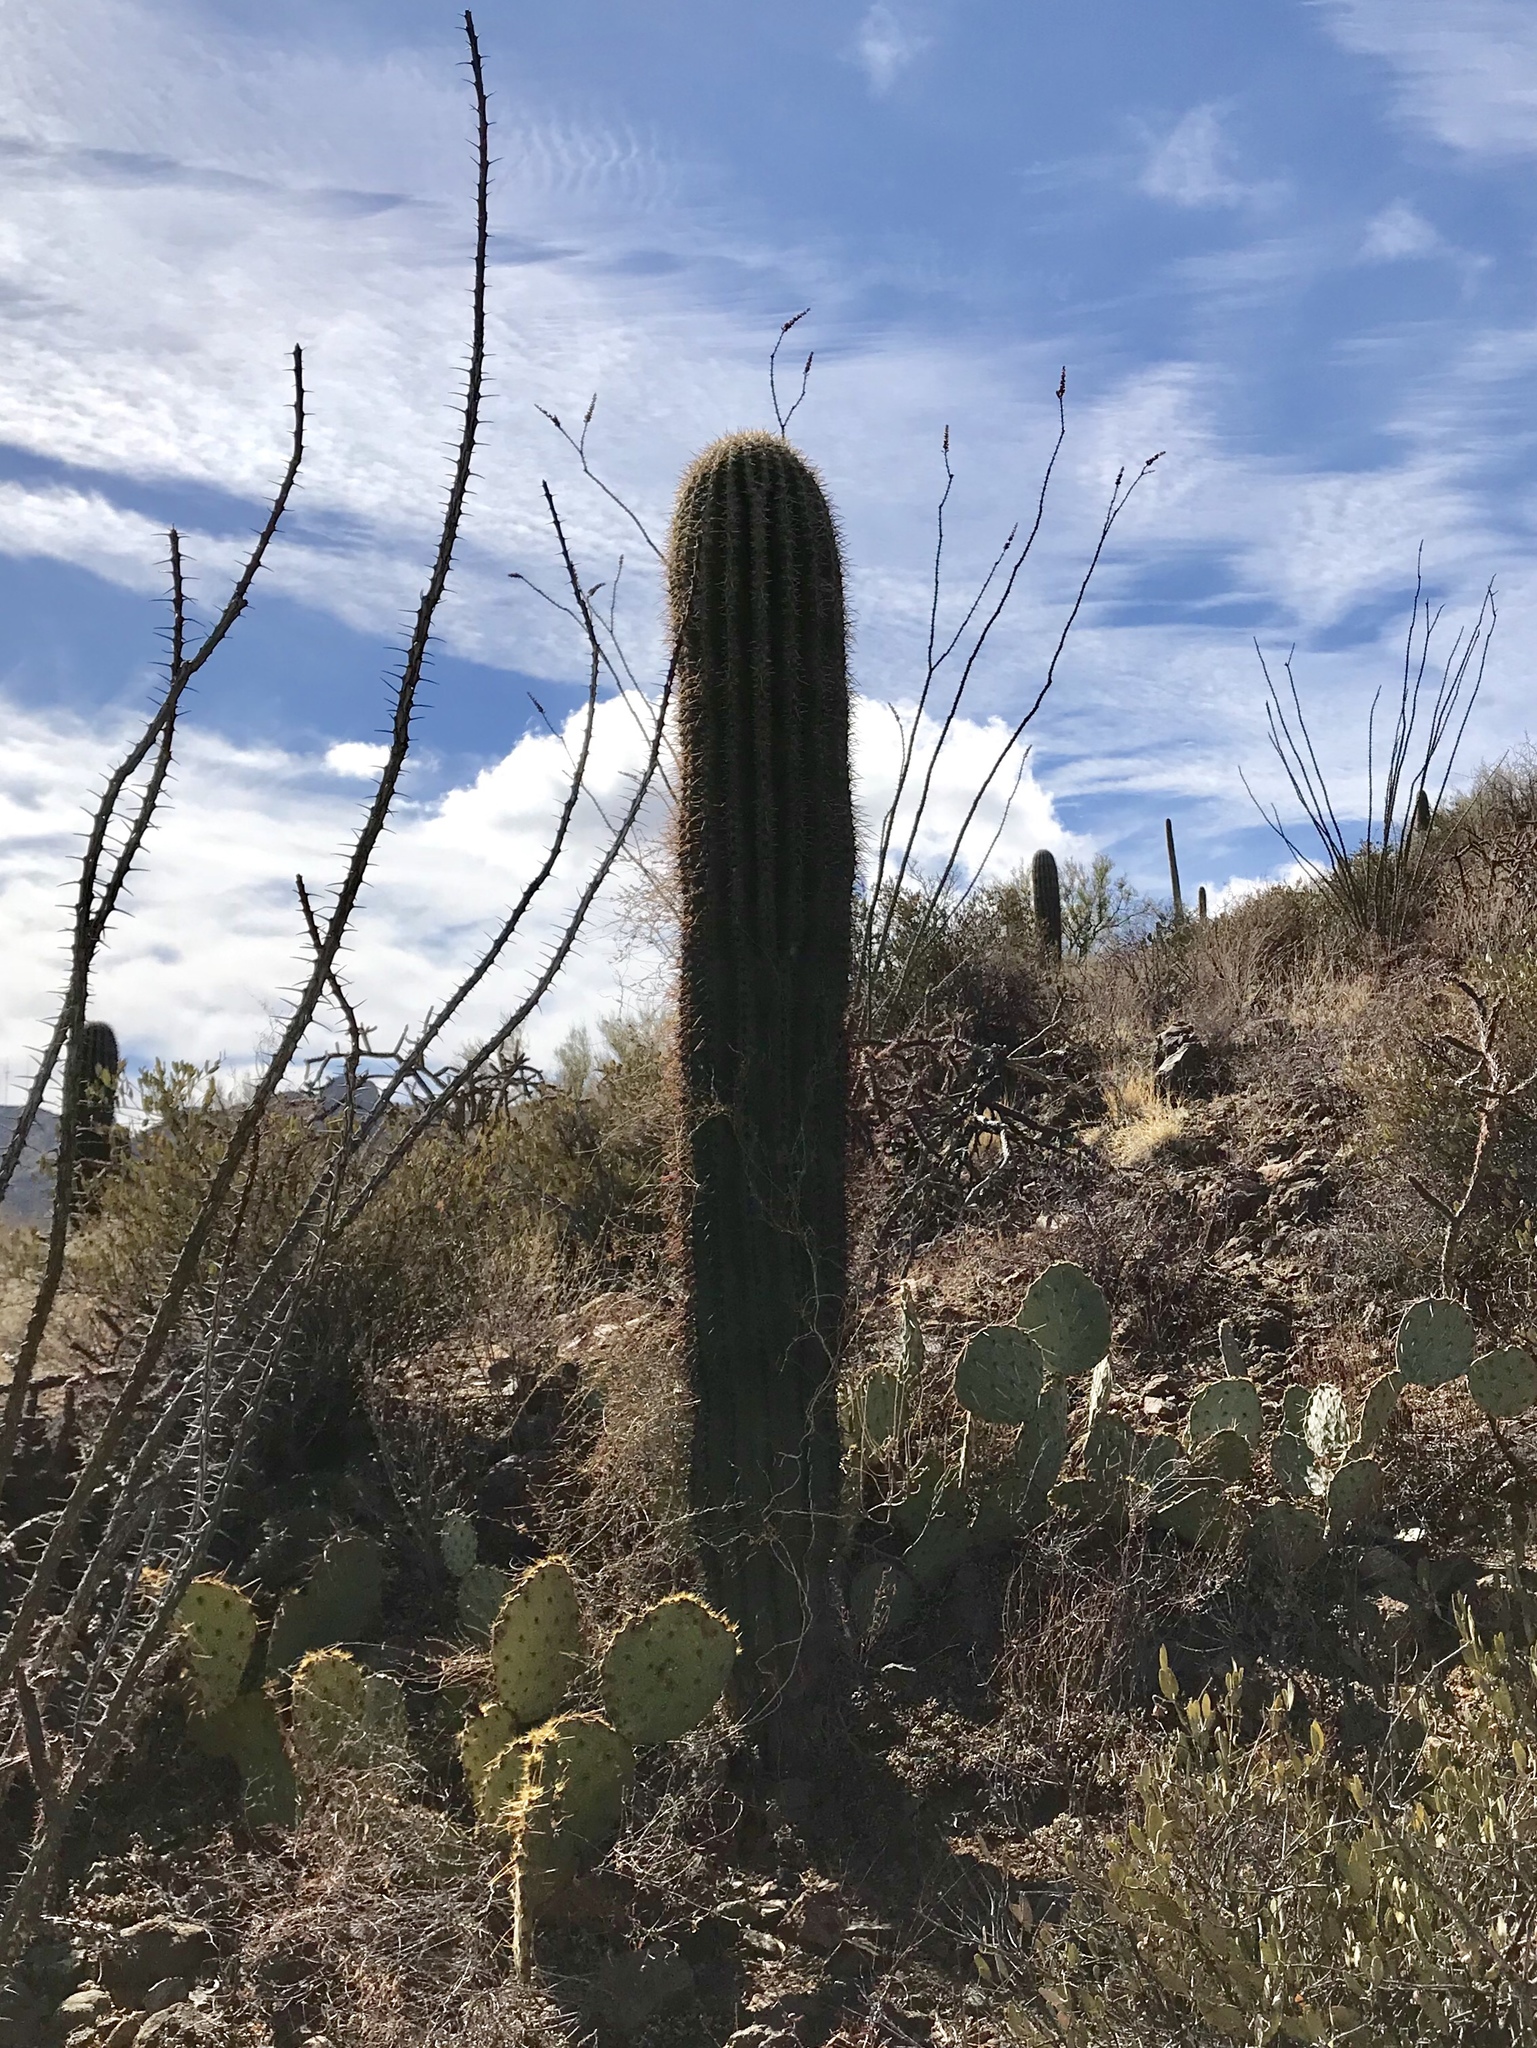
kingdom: Plantae
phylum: Tracheophyta
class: Magnoliopsida
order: Caryophyllales
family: Cactaceae
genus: Carnegiea
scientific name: Carnegiea gigantea
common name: Saguaro
